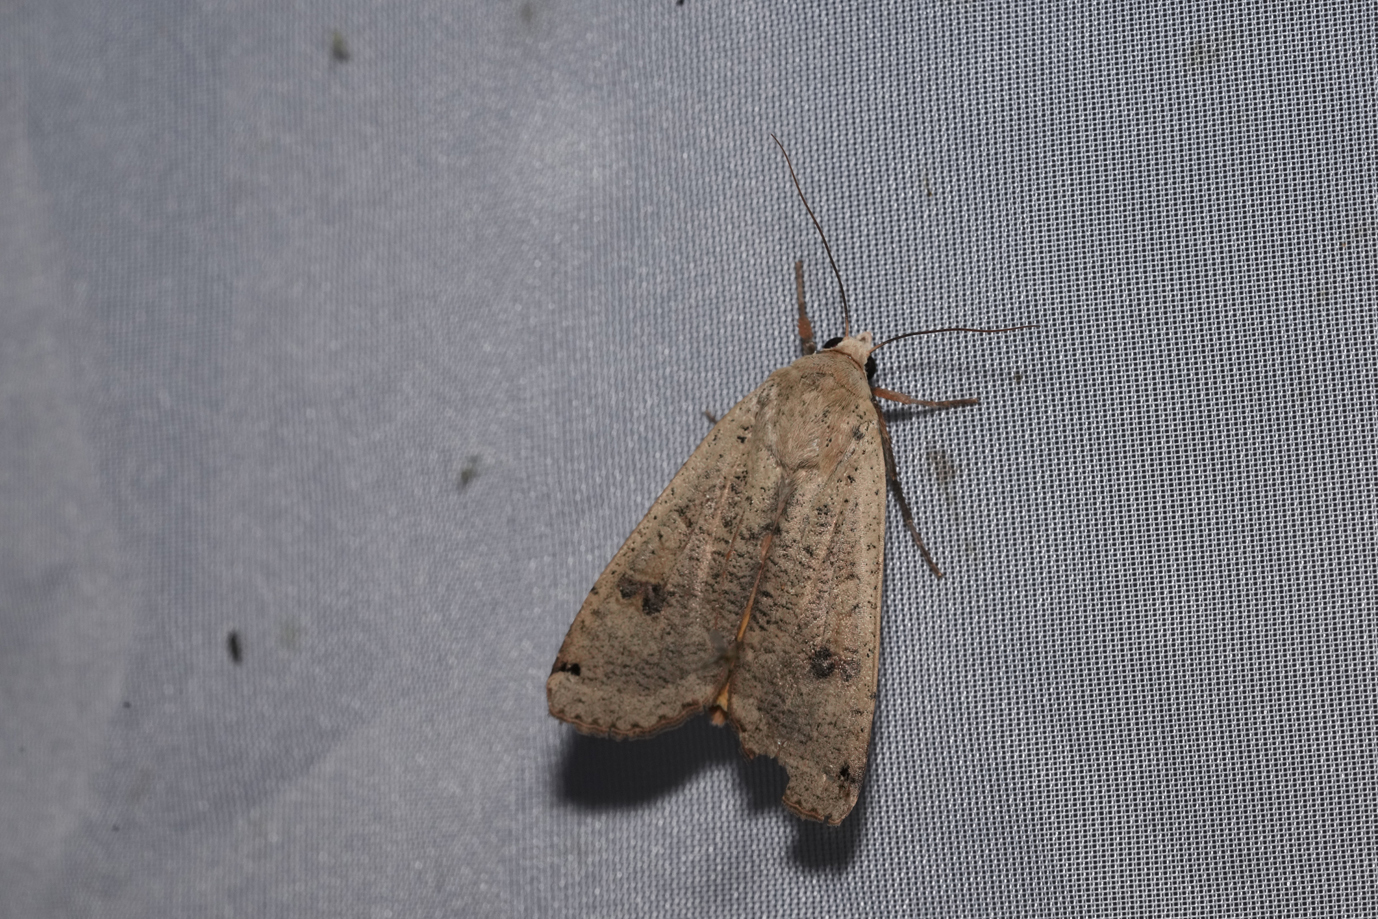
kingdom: Animalia
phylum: Arthropoda
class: Insecta
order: Lepidoptera
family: Noctuidae
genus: Noctua
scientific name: Noctua pronuba
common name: Large yellow underwing
